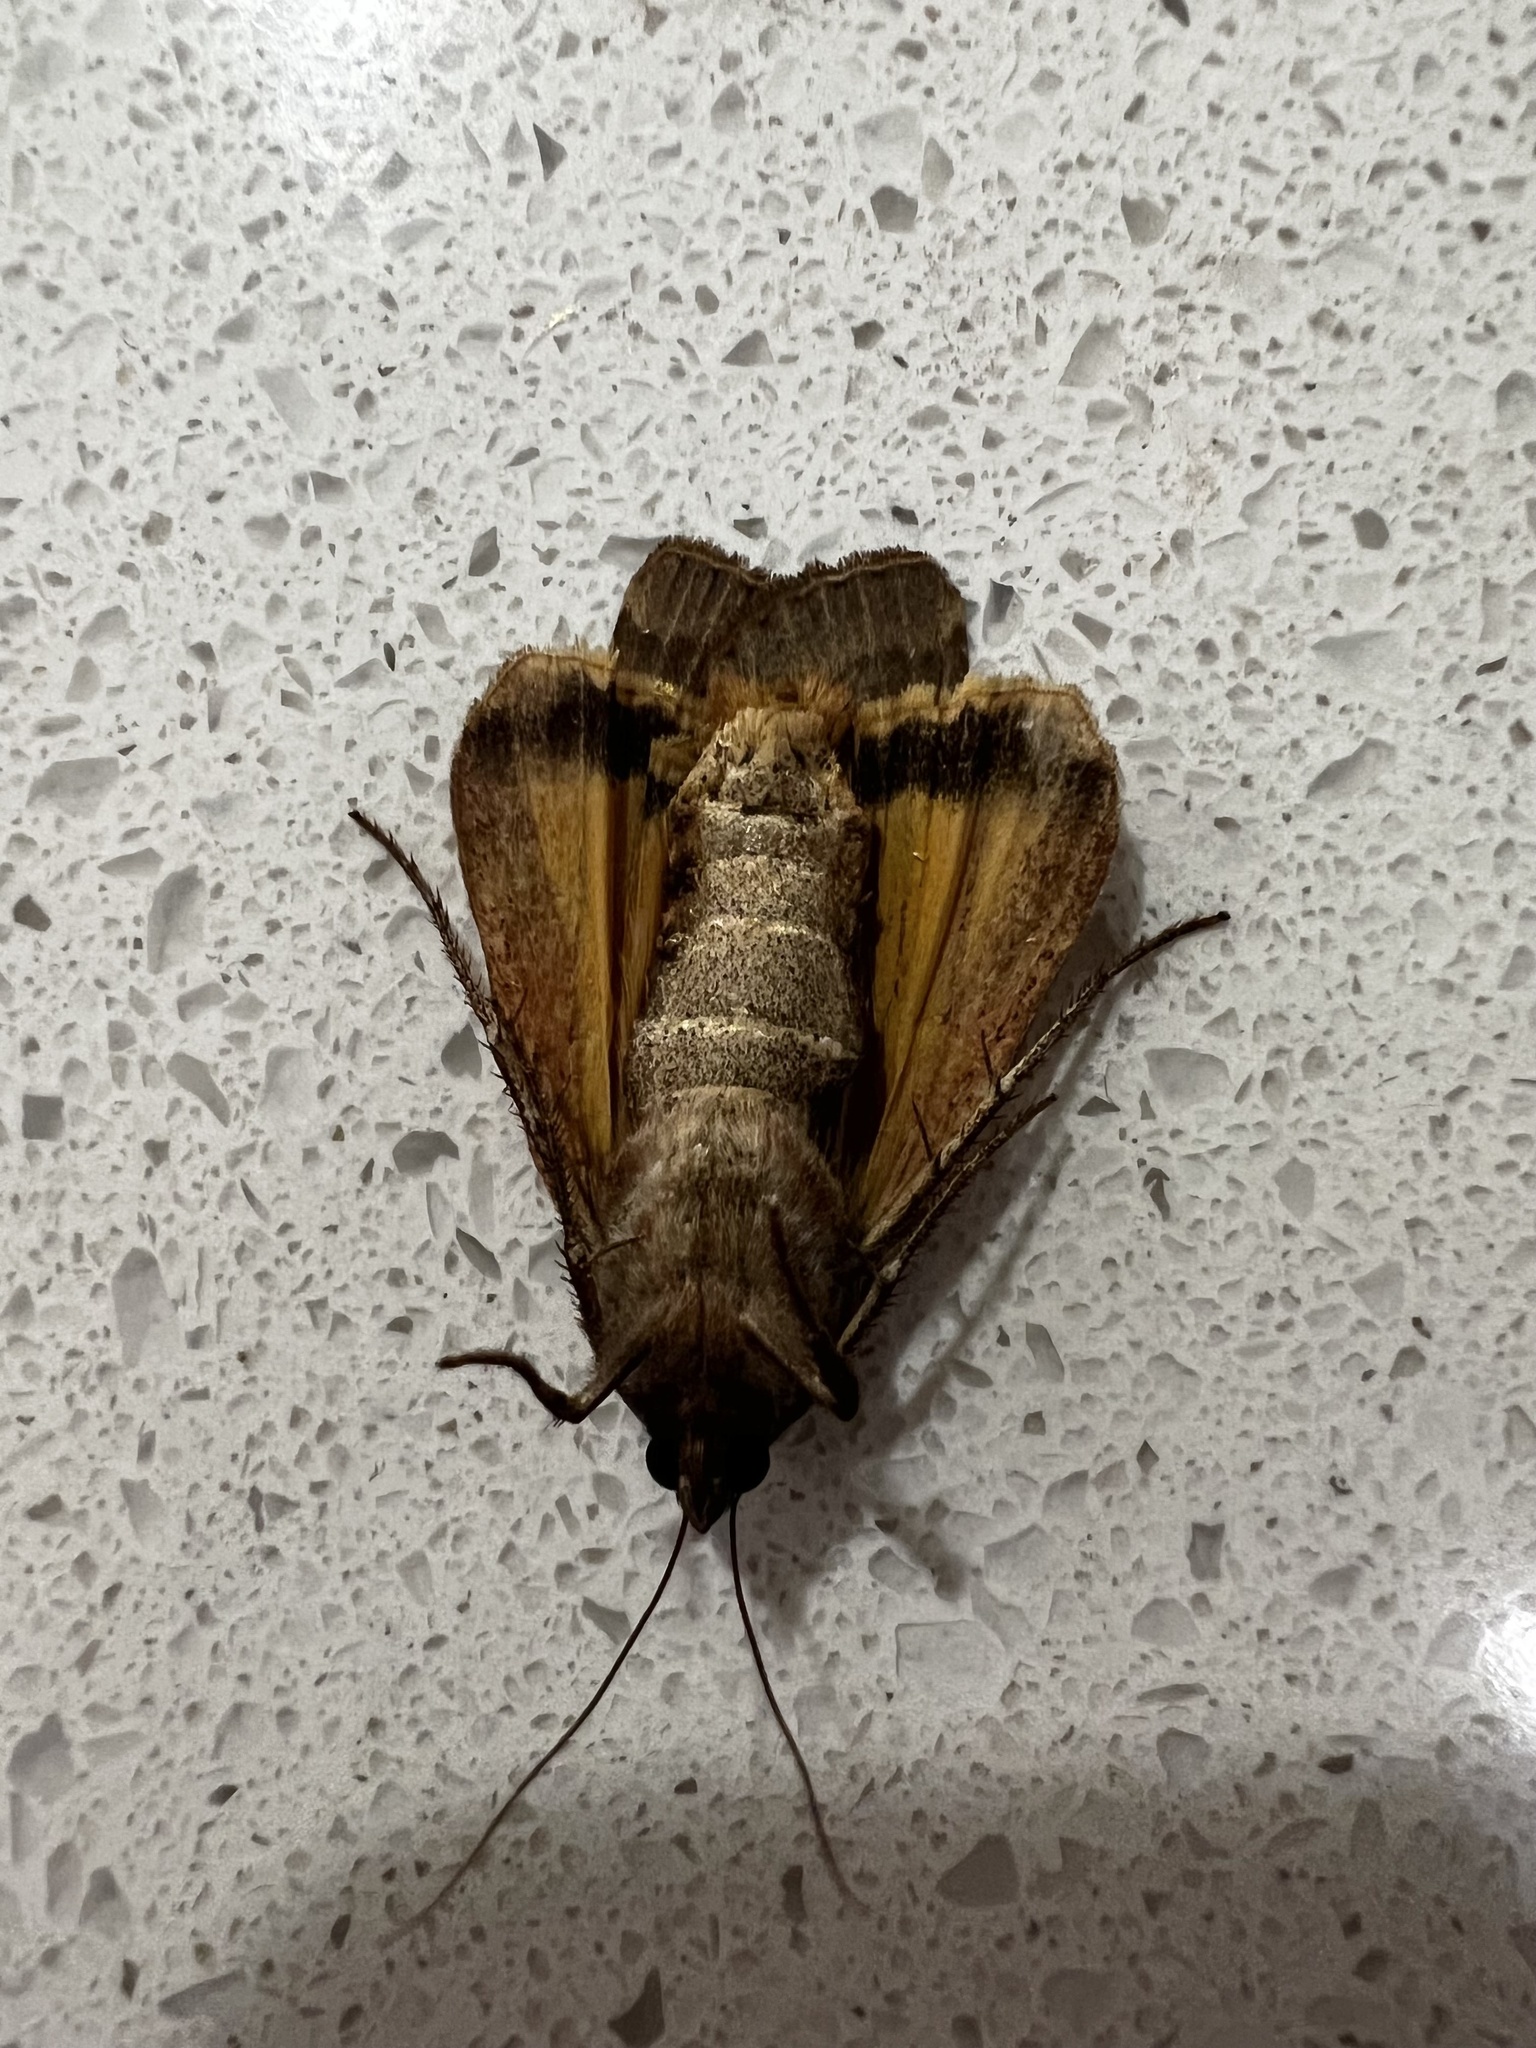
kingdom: Animalia
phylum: Arthropoda
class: Insecta
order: Lepidoptera
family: Noctuidae
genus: Noctua
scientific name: Noctua pronuba
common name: Large yellow underwing
